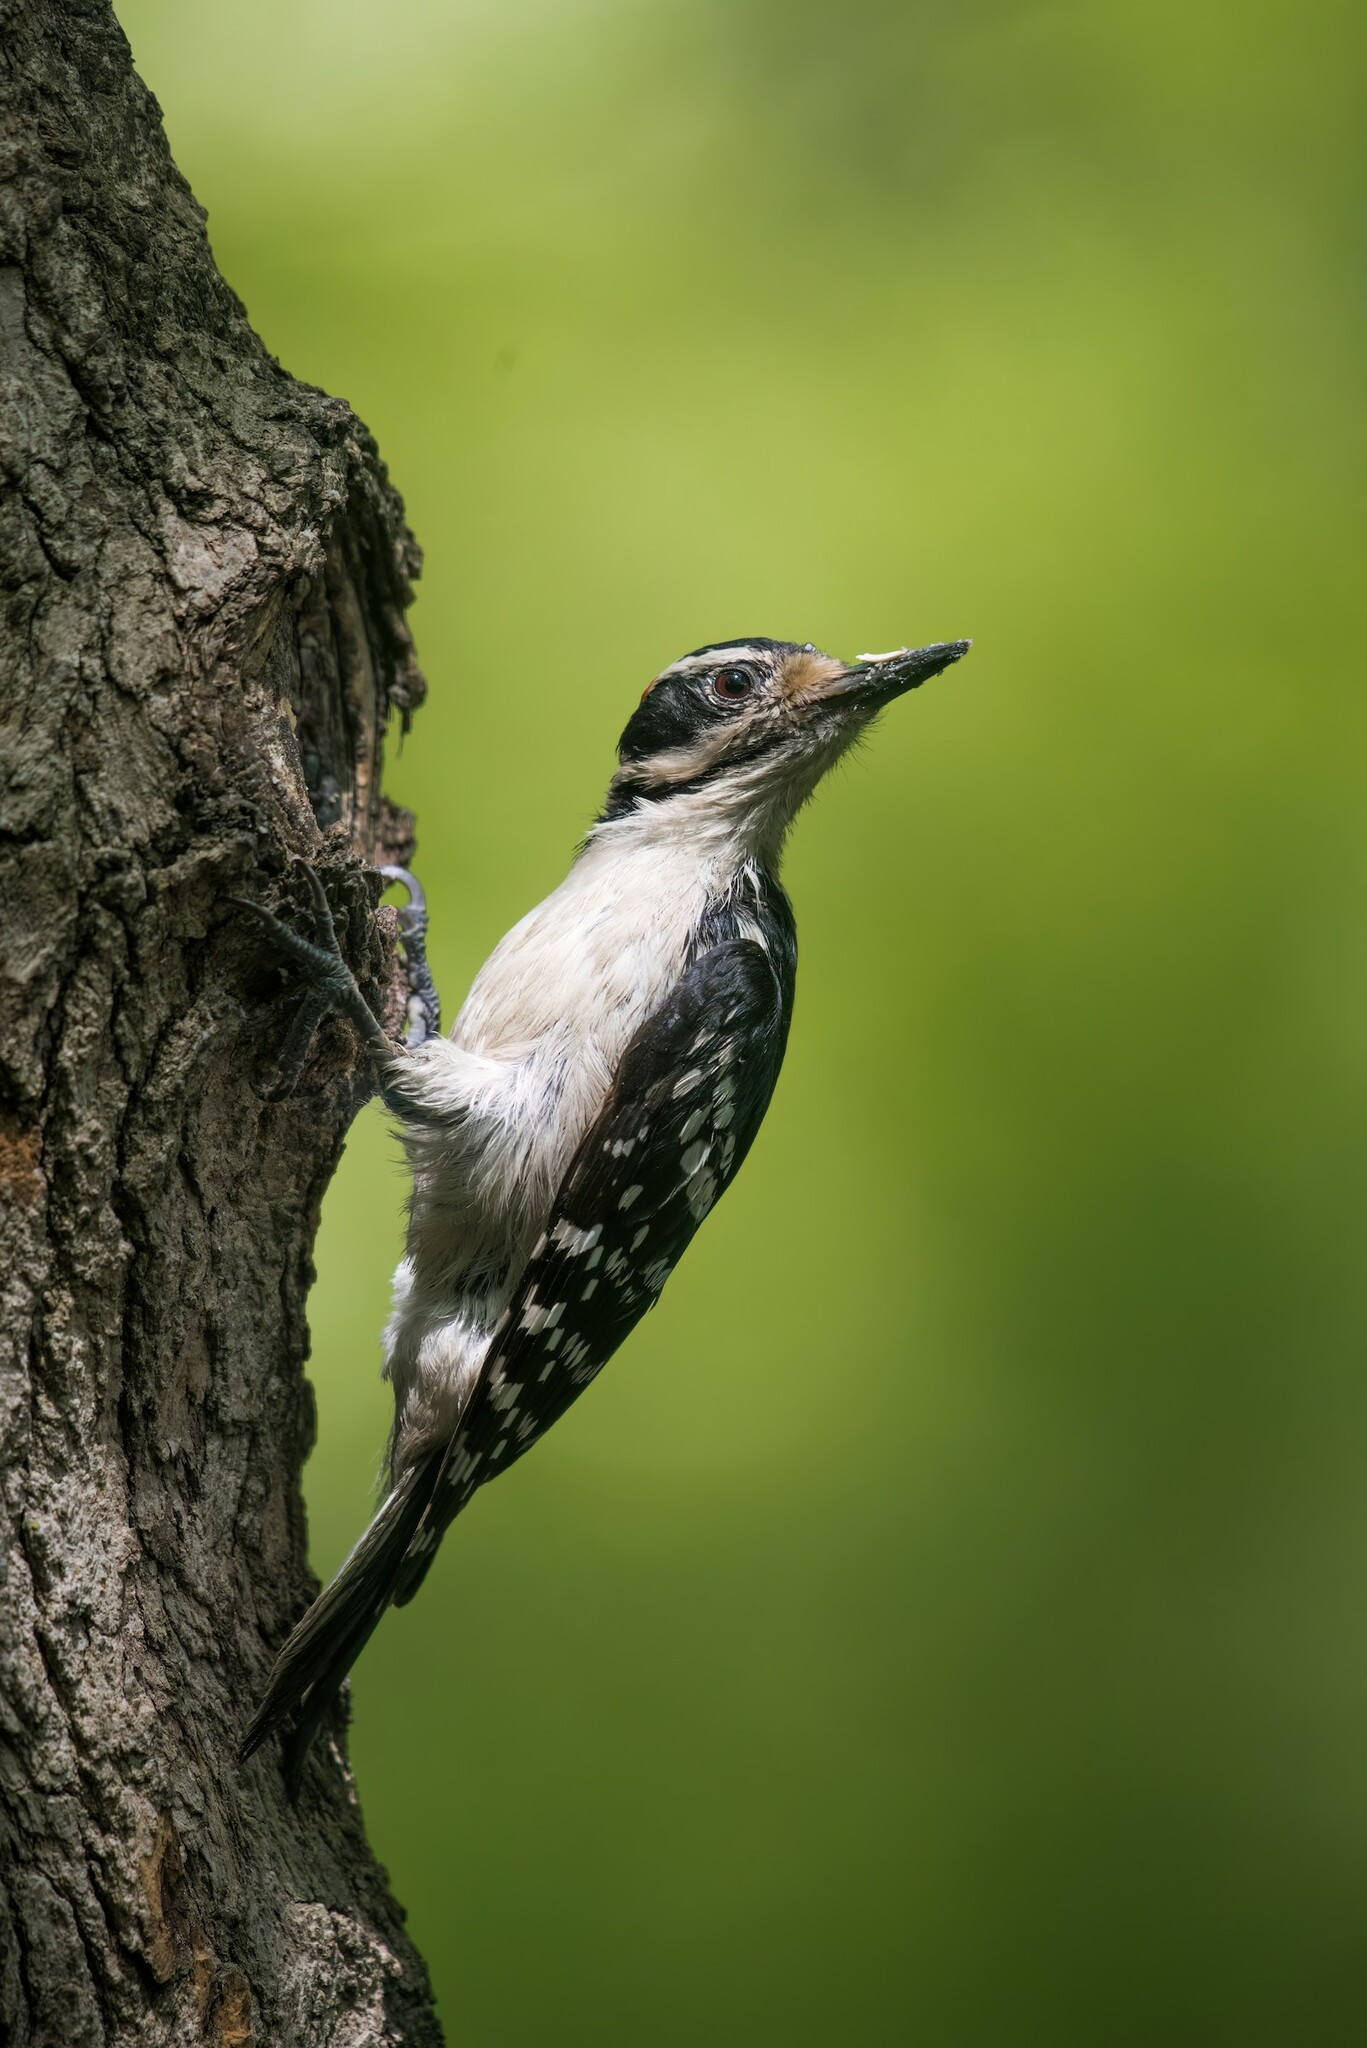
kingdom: Animalia
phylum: Chordata
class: Aves
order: Piciformes
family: Picidae
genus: Leuconotopicus
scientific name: Leuconotopicus villosus
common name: Hairy woodpecker
